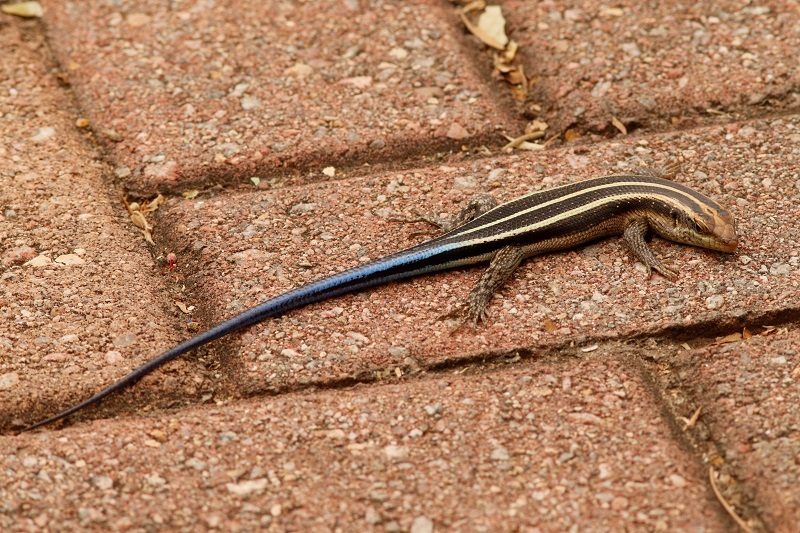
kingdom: Animalia
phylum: Chordata
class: Squamata
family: Scincidae
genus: Trachylepis
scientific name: Trachylepis margaritifera
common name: Rainbow skink
